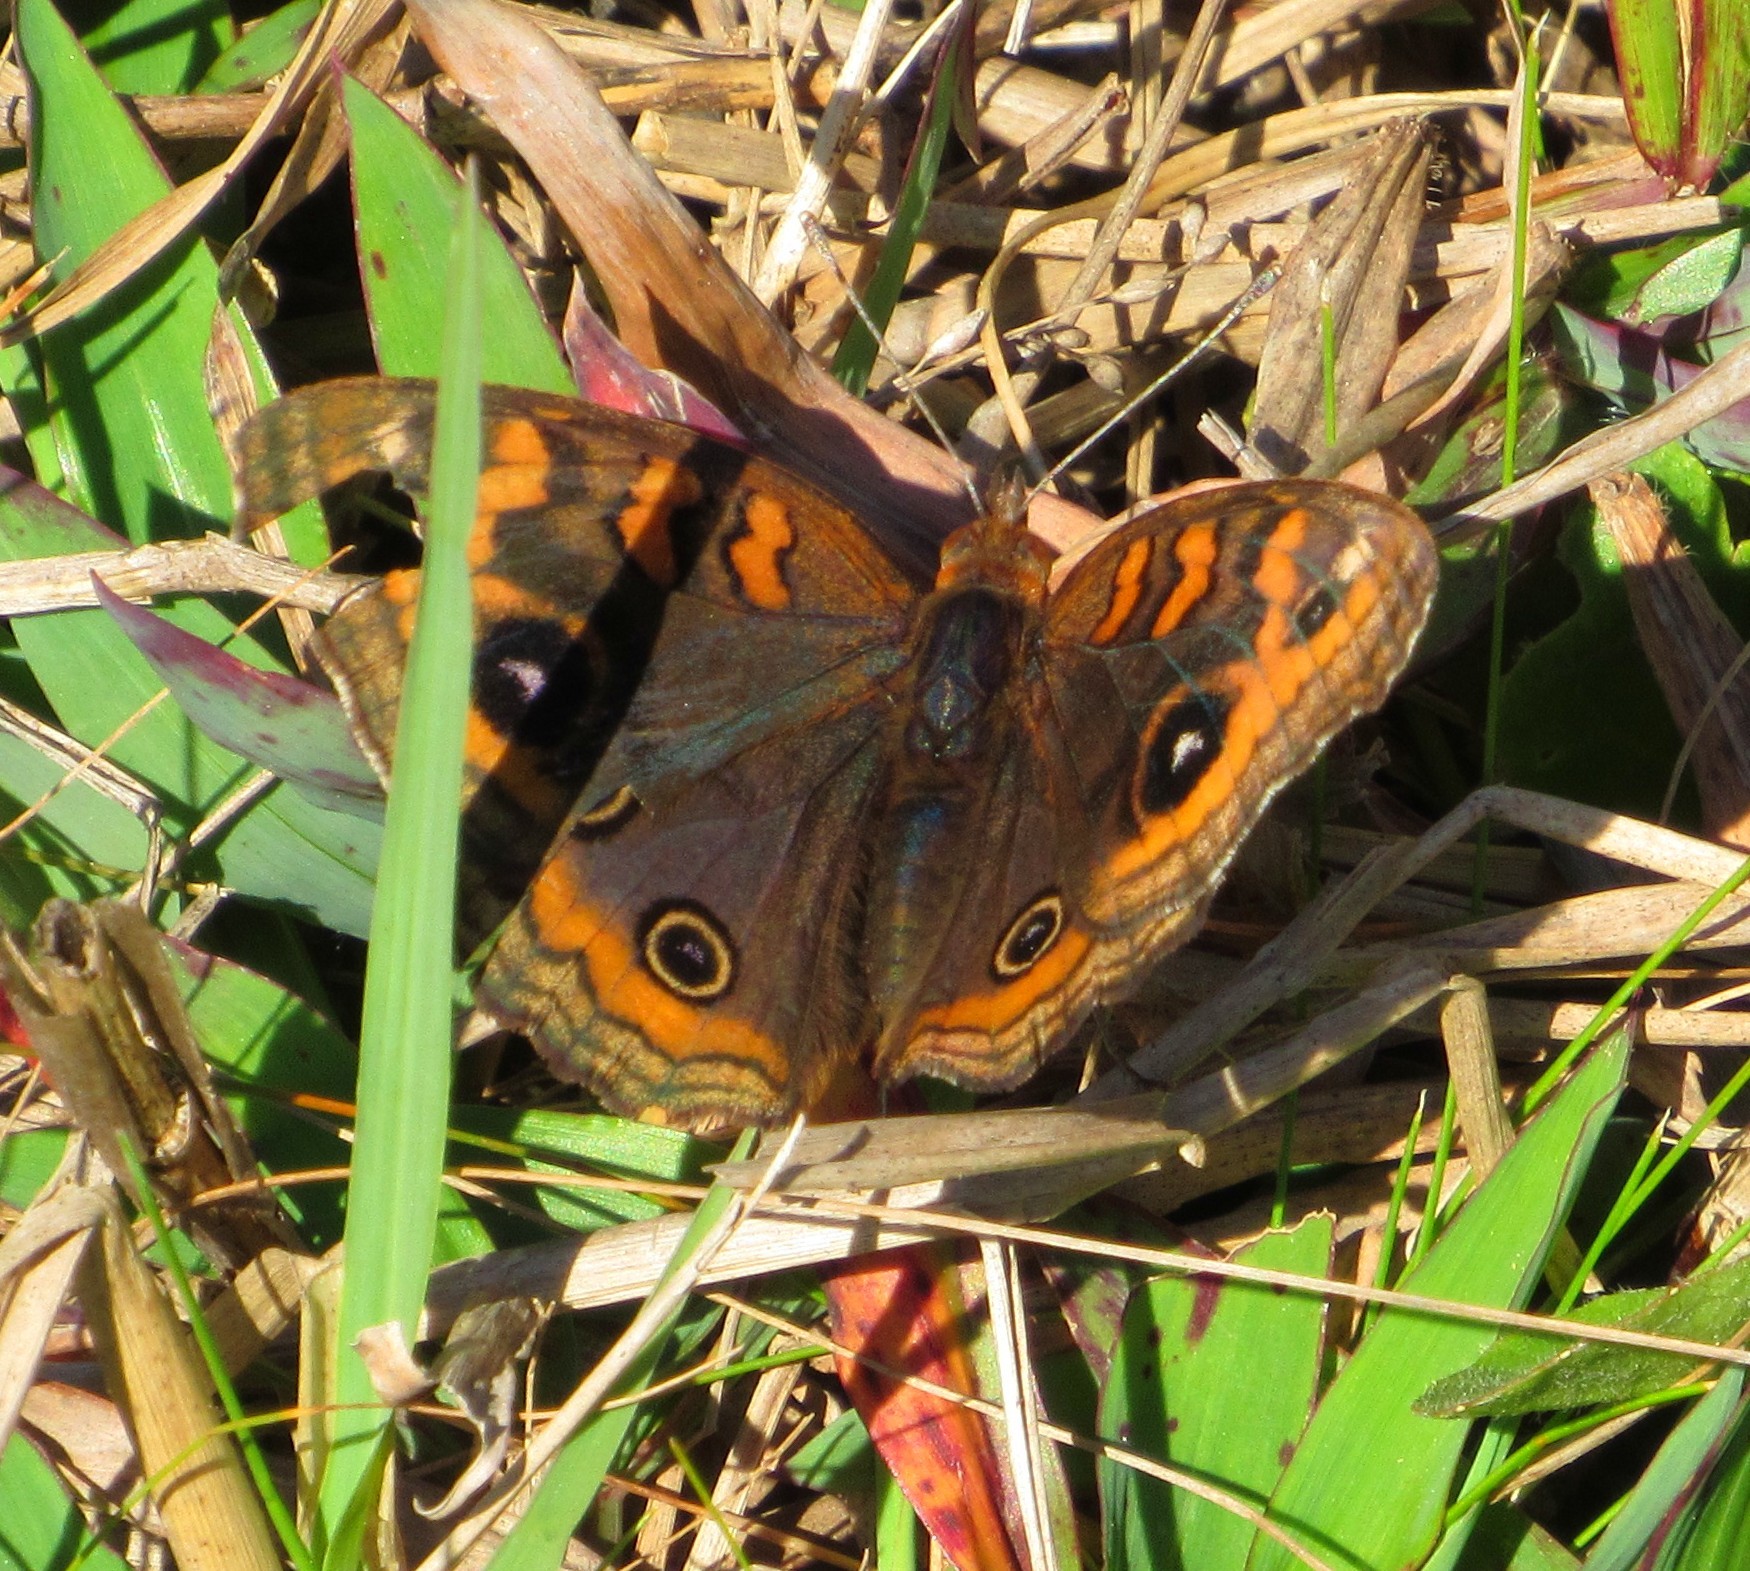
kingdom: Animalia
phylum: Arthropoda
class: Insecta
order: Lepidoptera
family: Nymphalidae
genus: Junonia
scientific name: Junonia evarete
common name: Black mangrove buckeye
